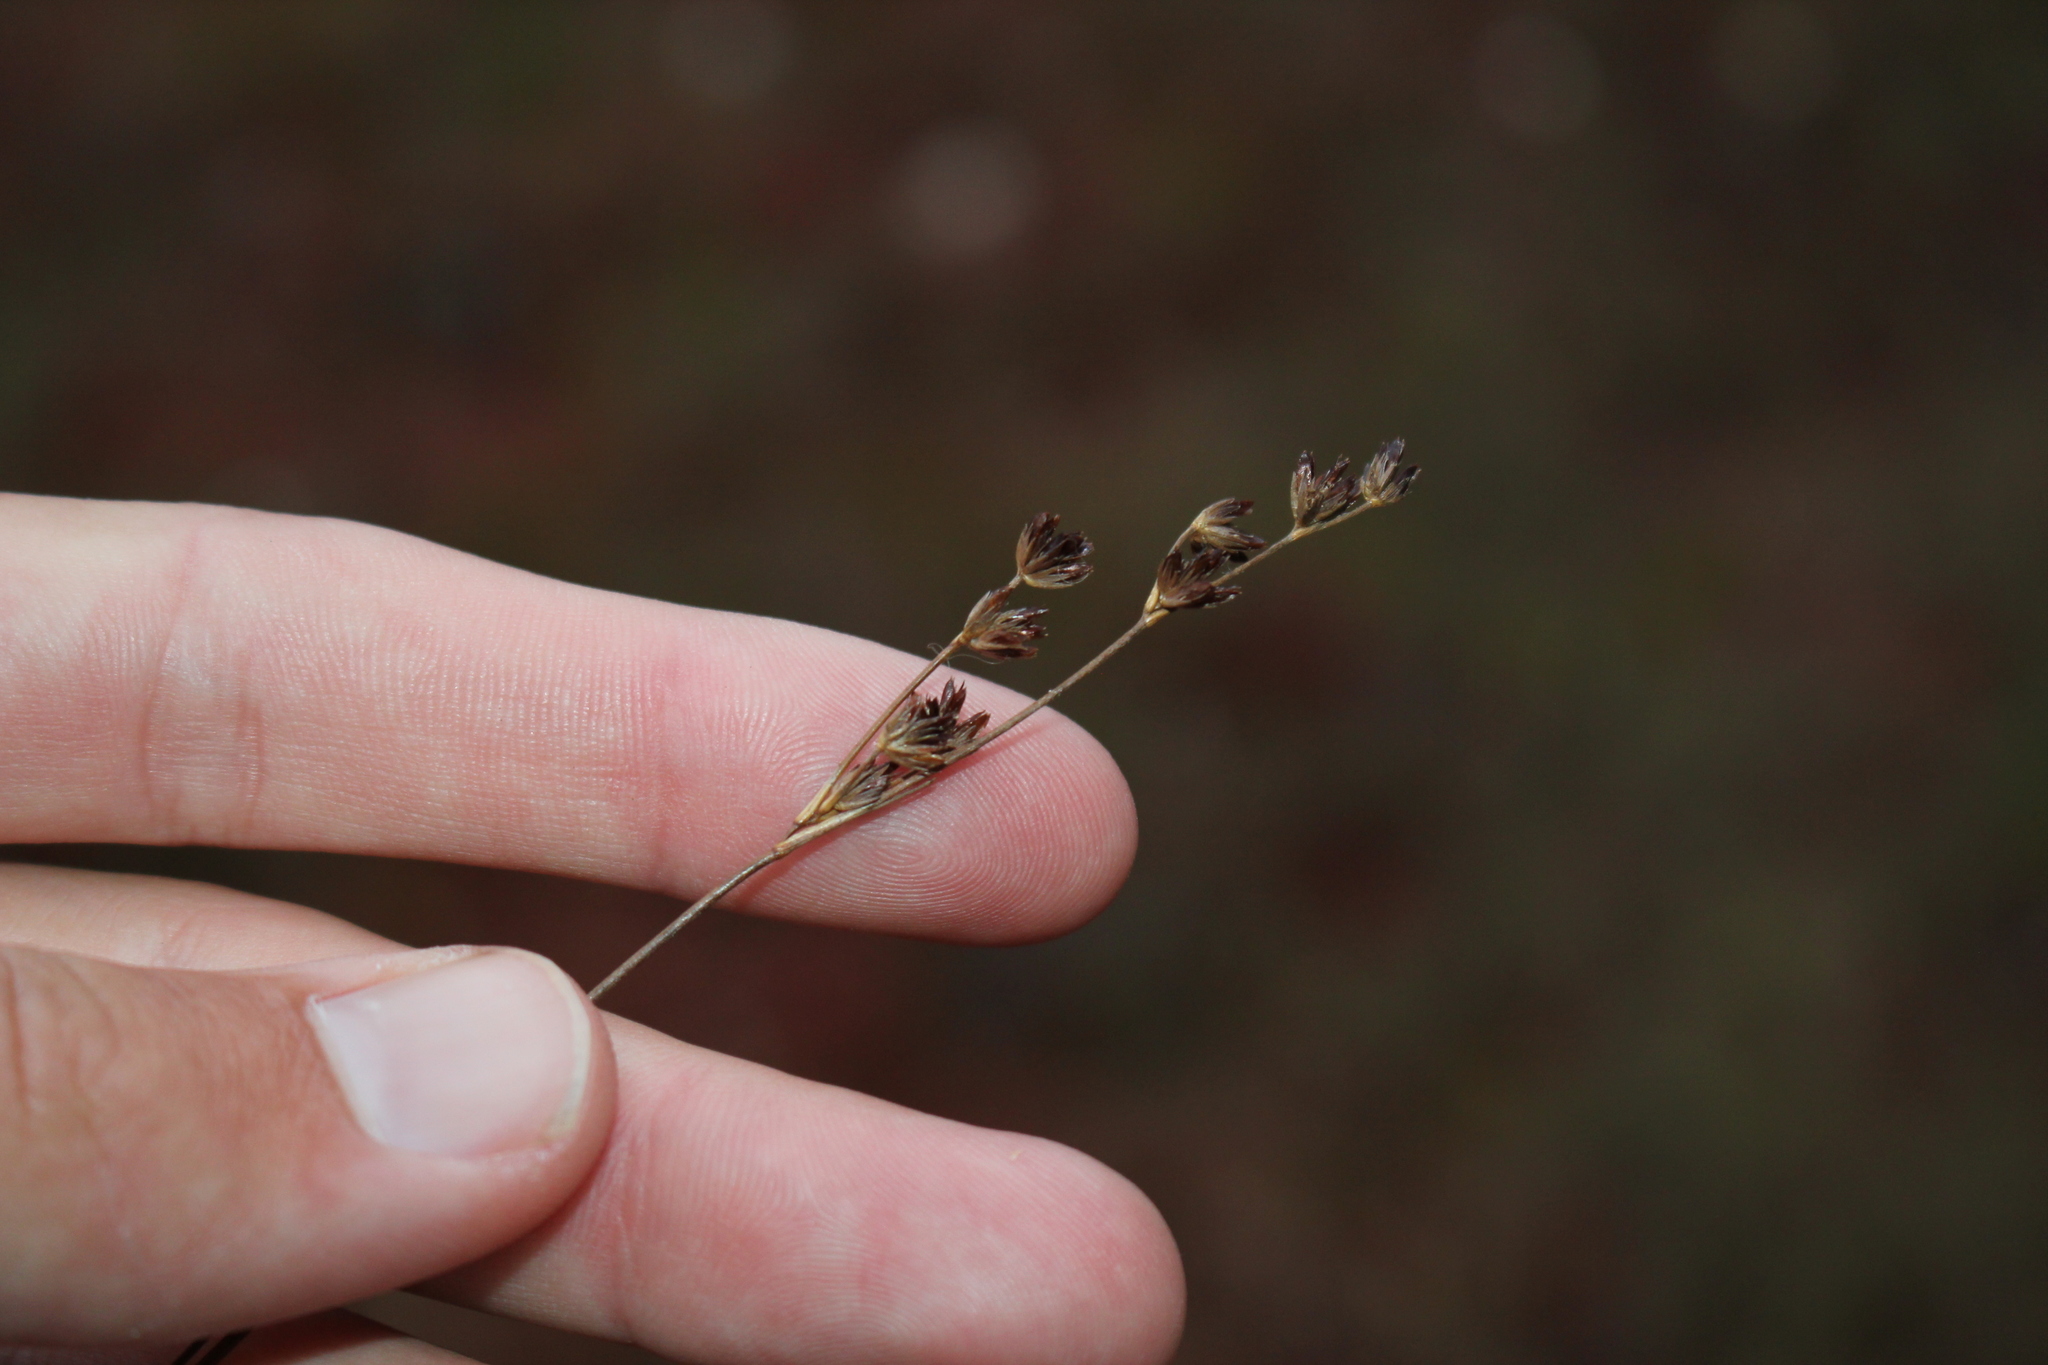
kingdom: Plantae
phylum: Tracheophyta
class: Liliopsida
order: Poales
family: Juncaceae
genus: Juncus
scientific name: Juncus tweedyi
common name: Narrow-panicled rush
